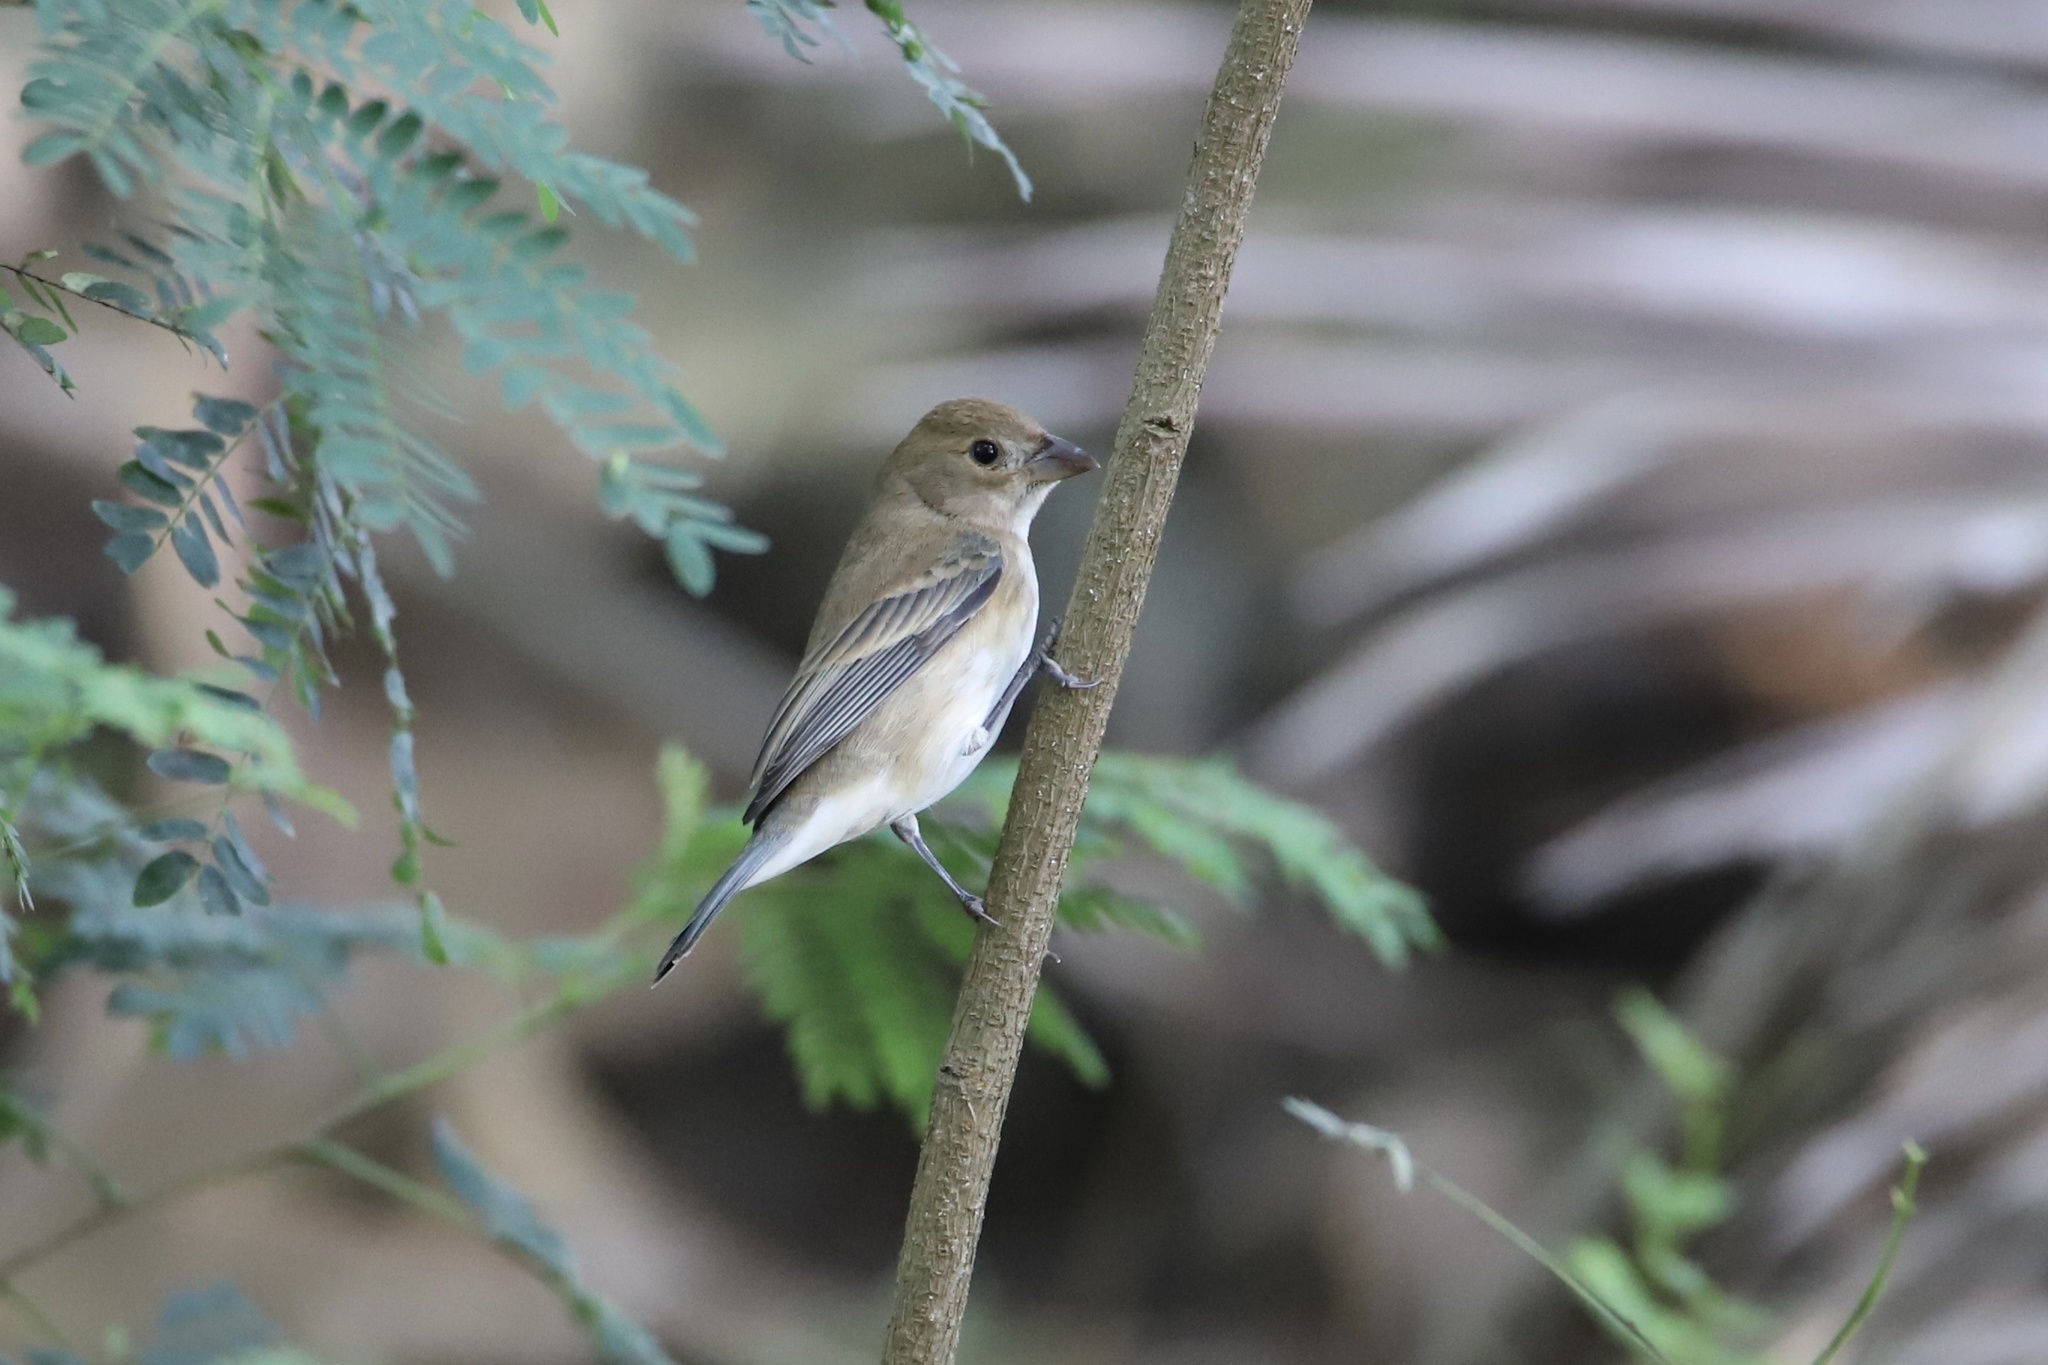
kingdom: Animalia
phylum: Chordata
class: Aves
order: Passeriformes
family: Cardinalidae
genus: Passerina
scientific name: Passerina cyanea
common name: Indigo bunting
